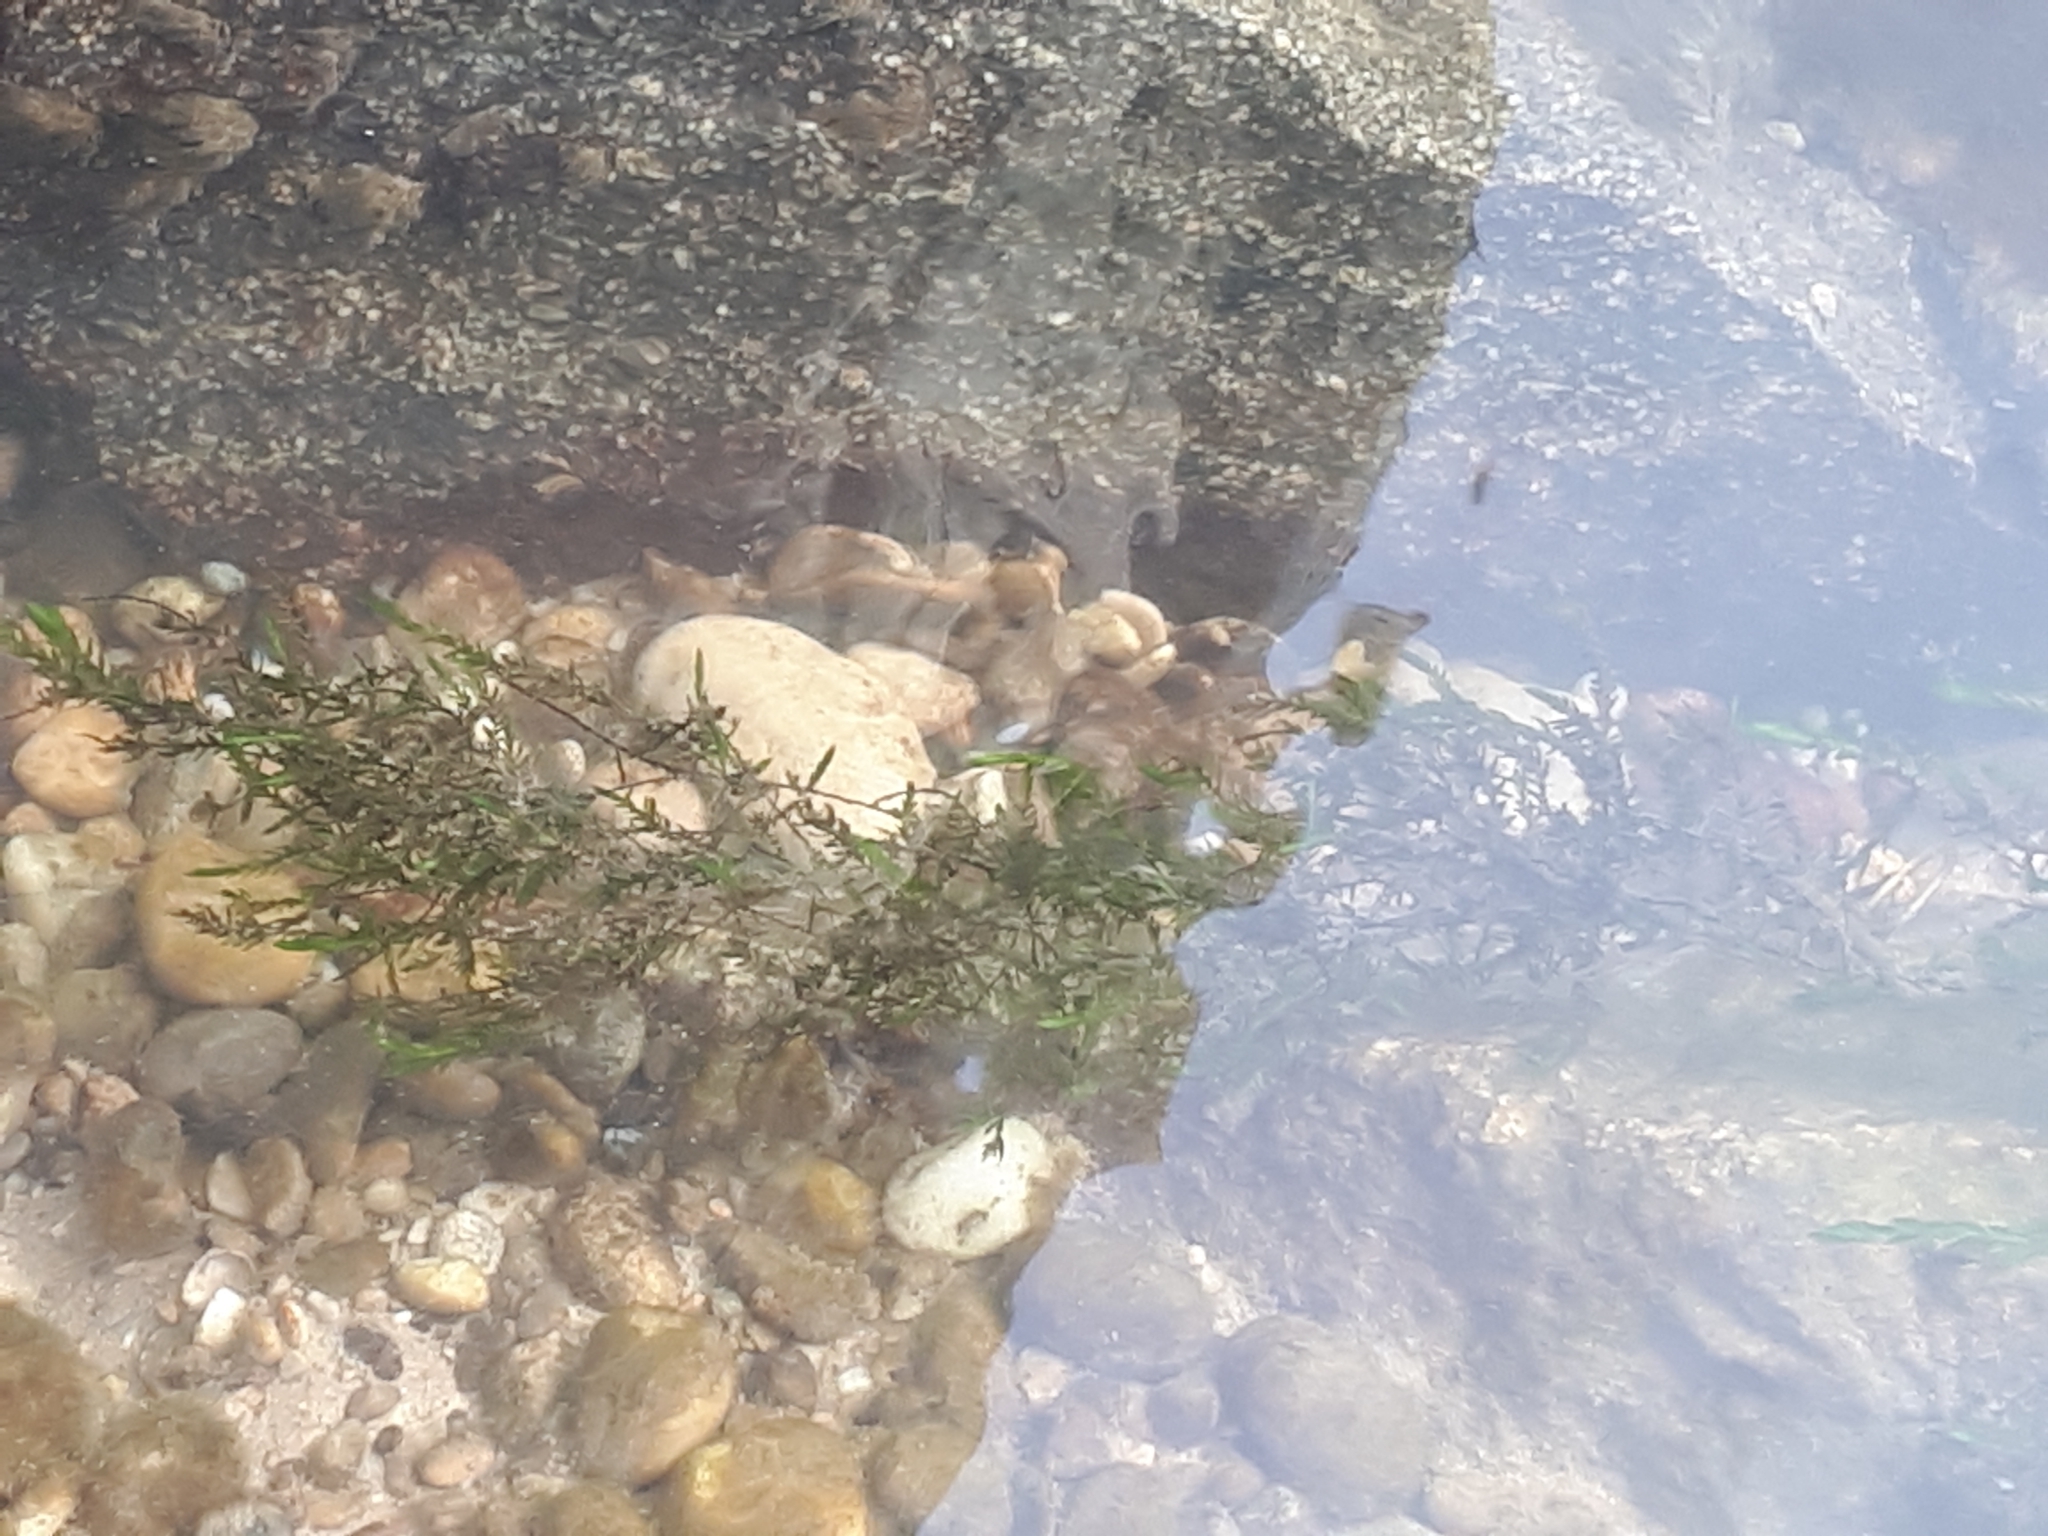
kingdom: Plantae
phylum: Bryophyta
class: Bryopsida
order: Hypnales
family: Fontinalaceae
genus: Fontinalis
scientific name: Fontinalis antipyretica
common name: Greater water-moss
